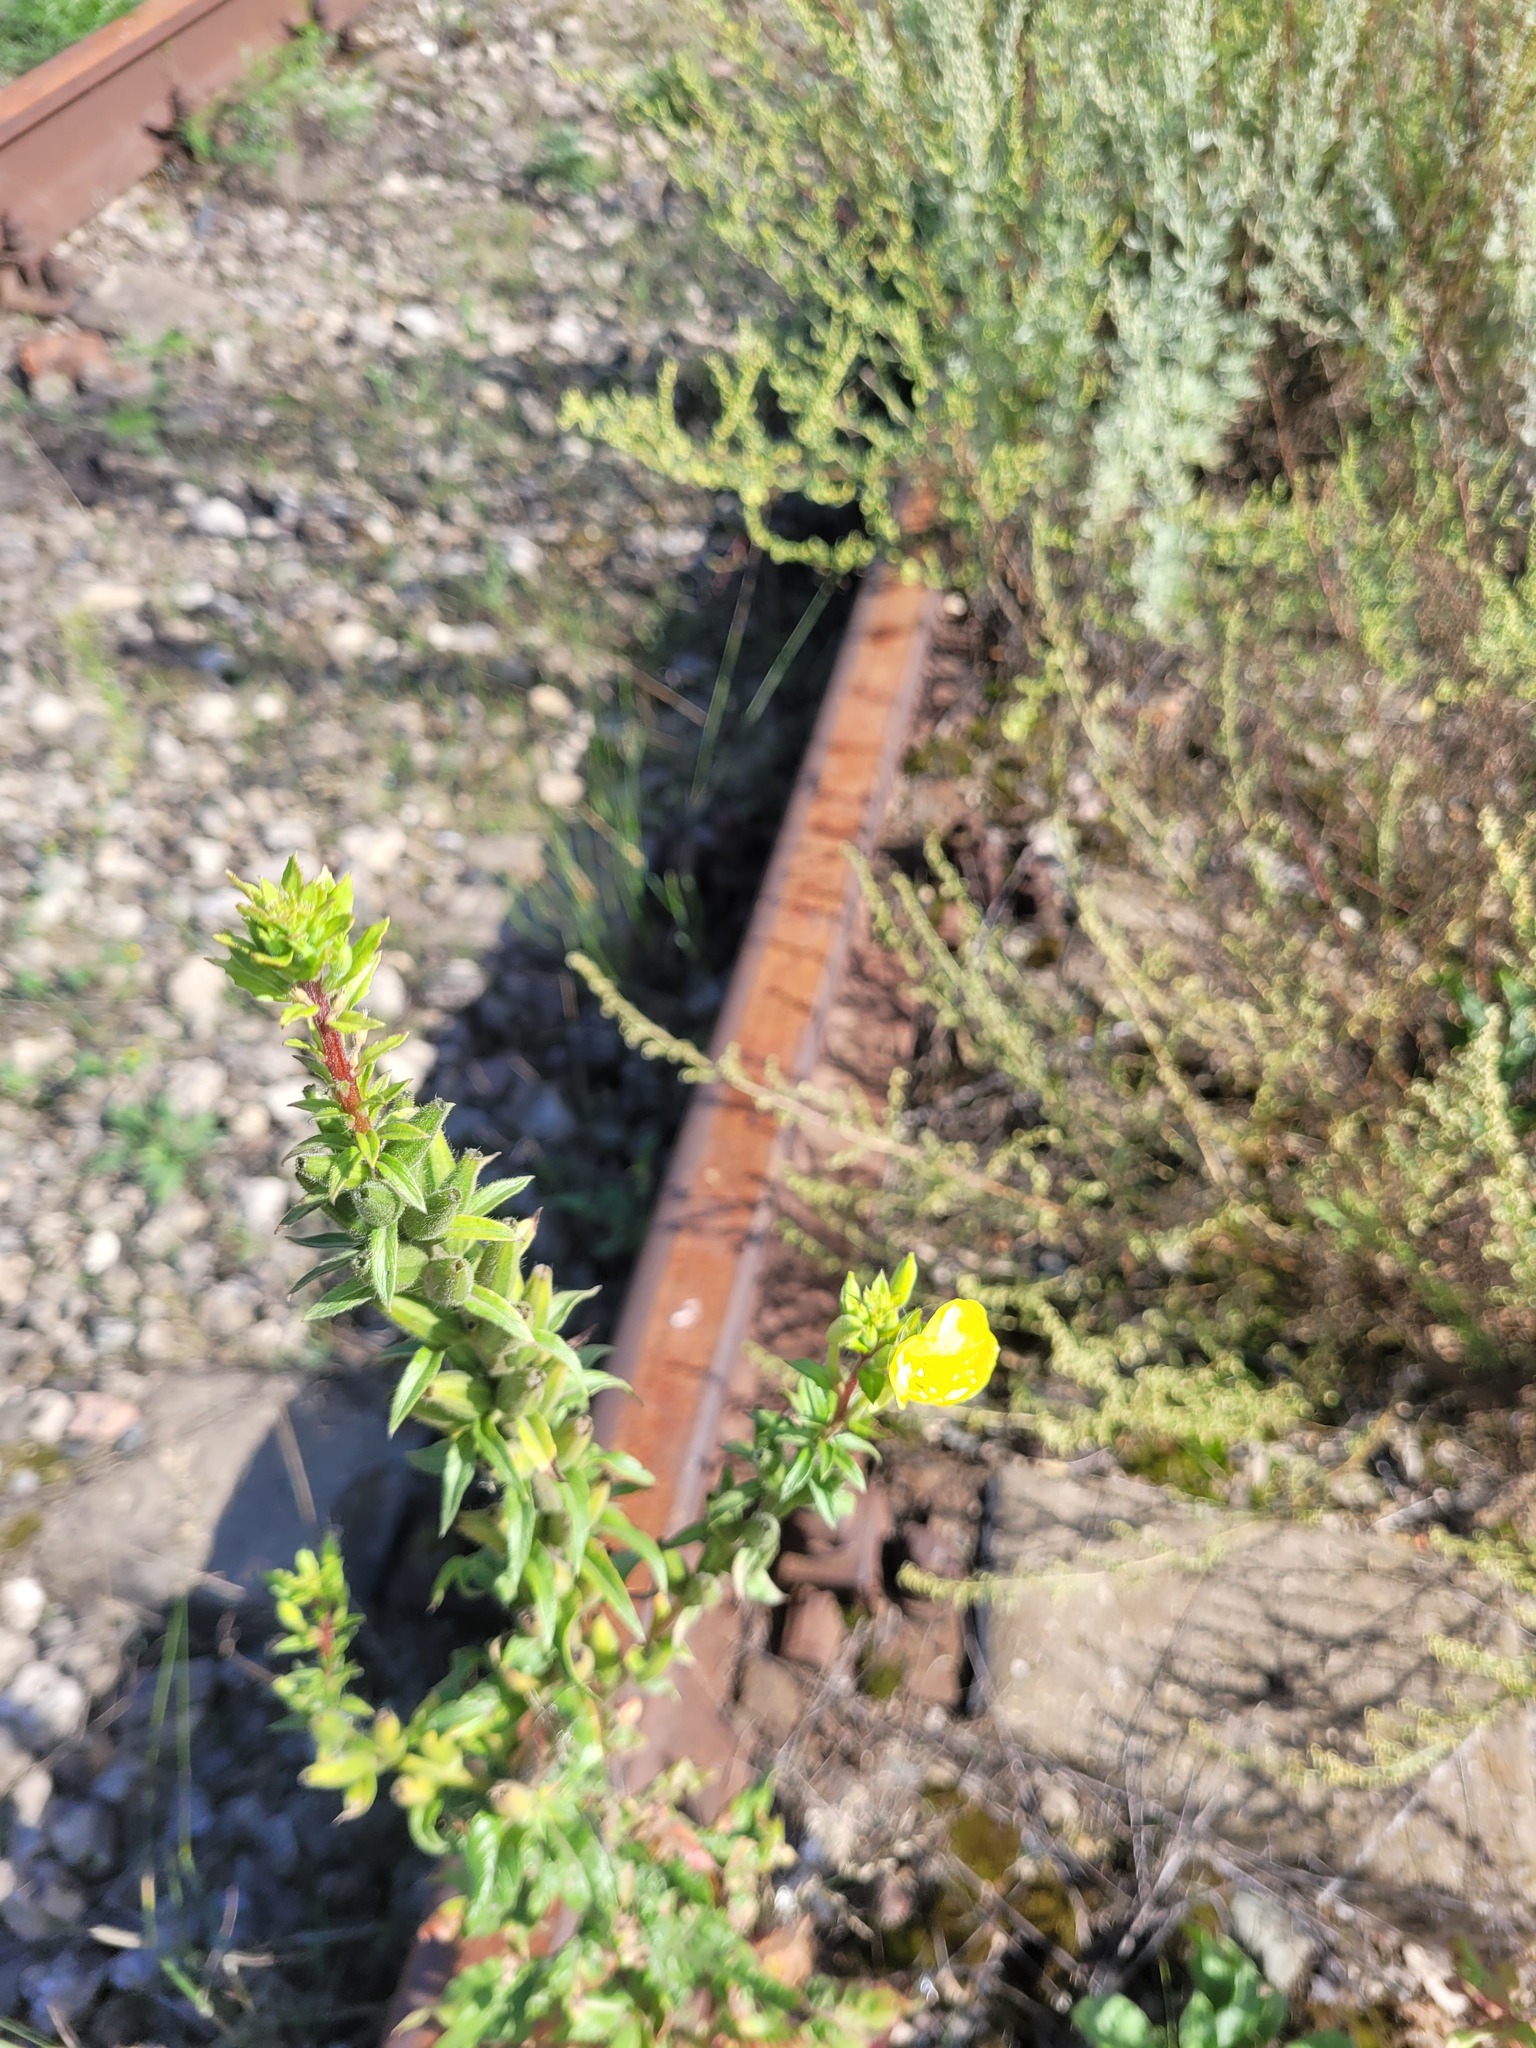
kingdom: Plantae
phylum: Tracheophyta
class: Magnoliopsida
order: Myrtales
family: Onagraceae
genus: Oenothera
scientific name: Oenothera rubricaulis
